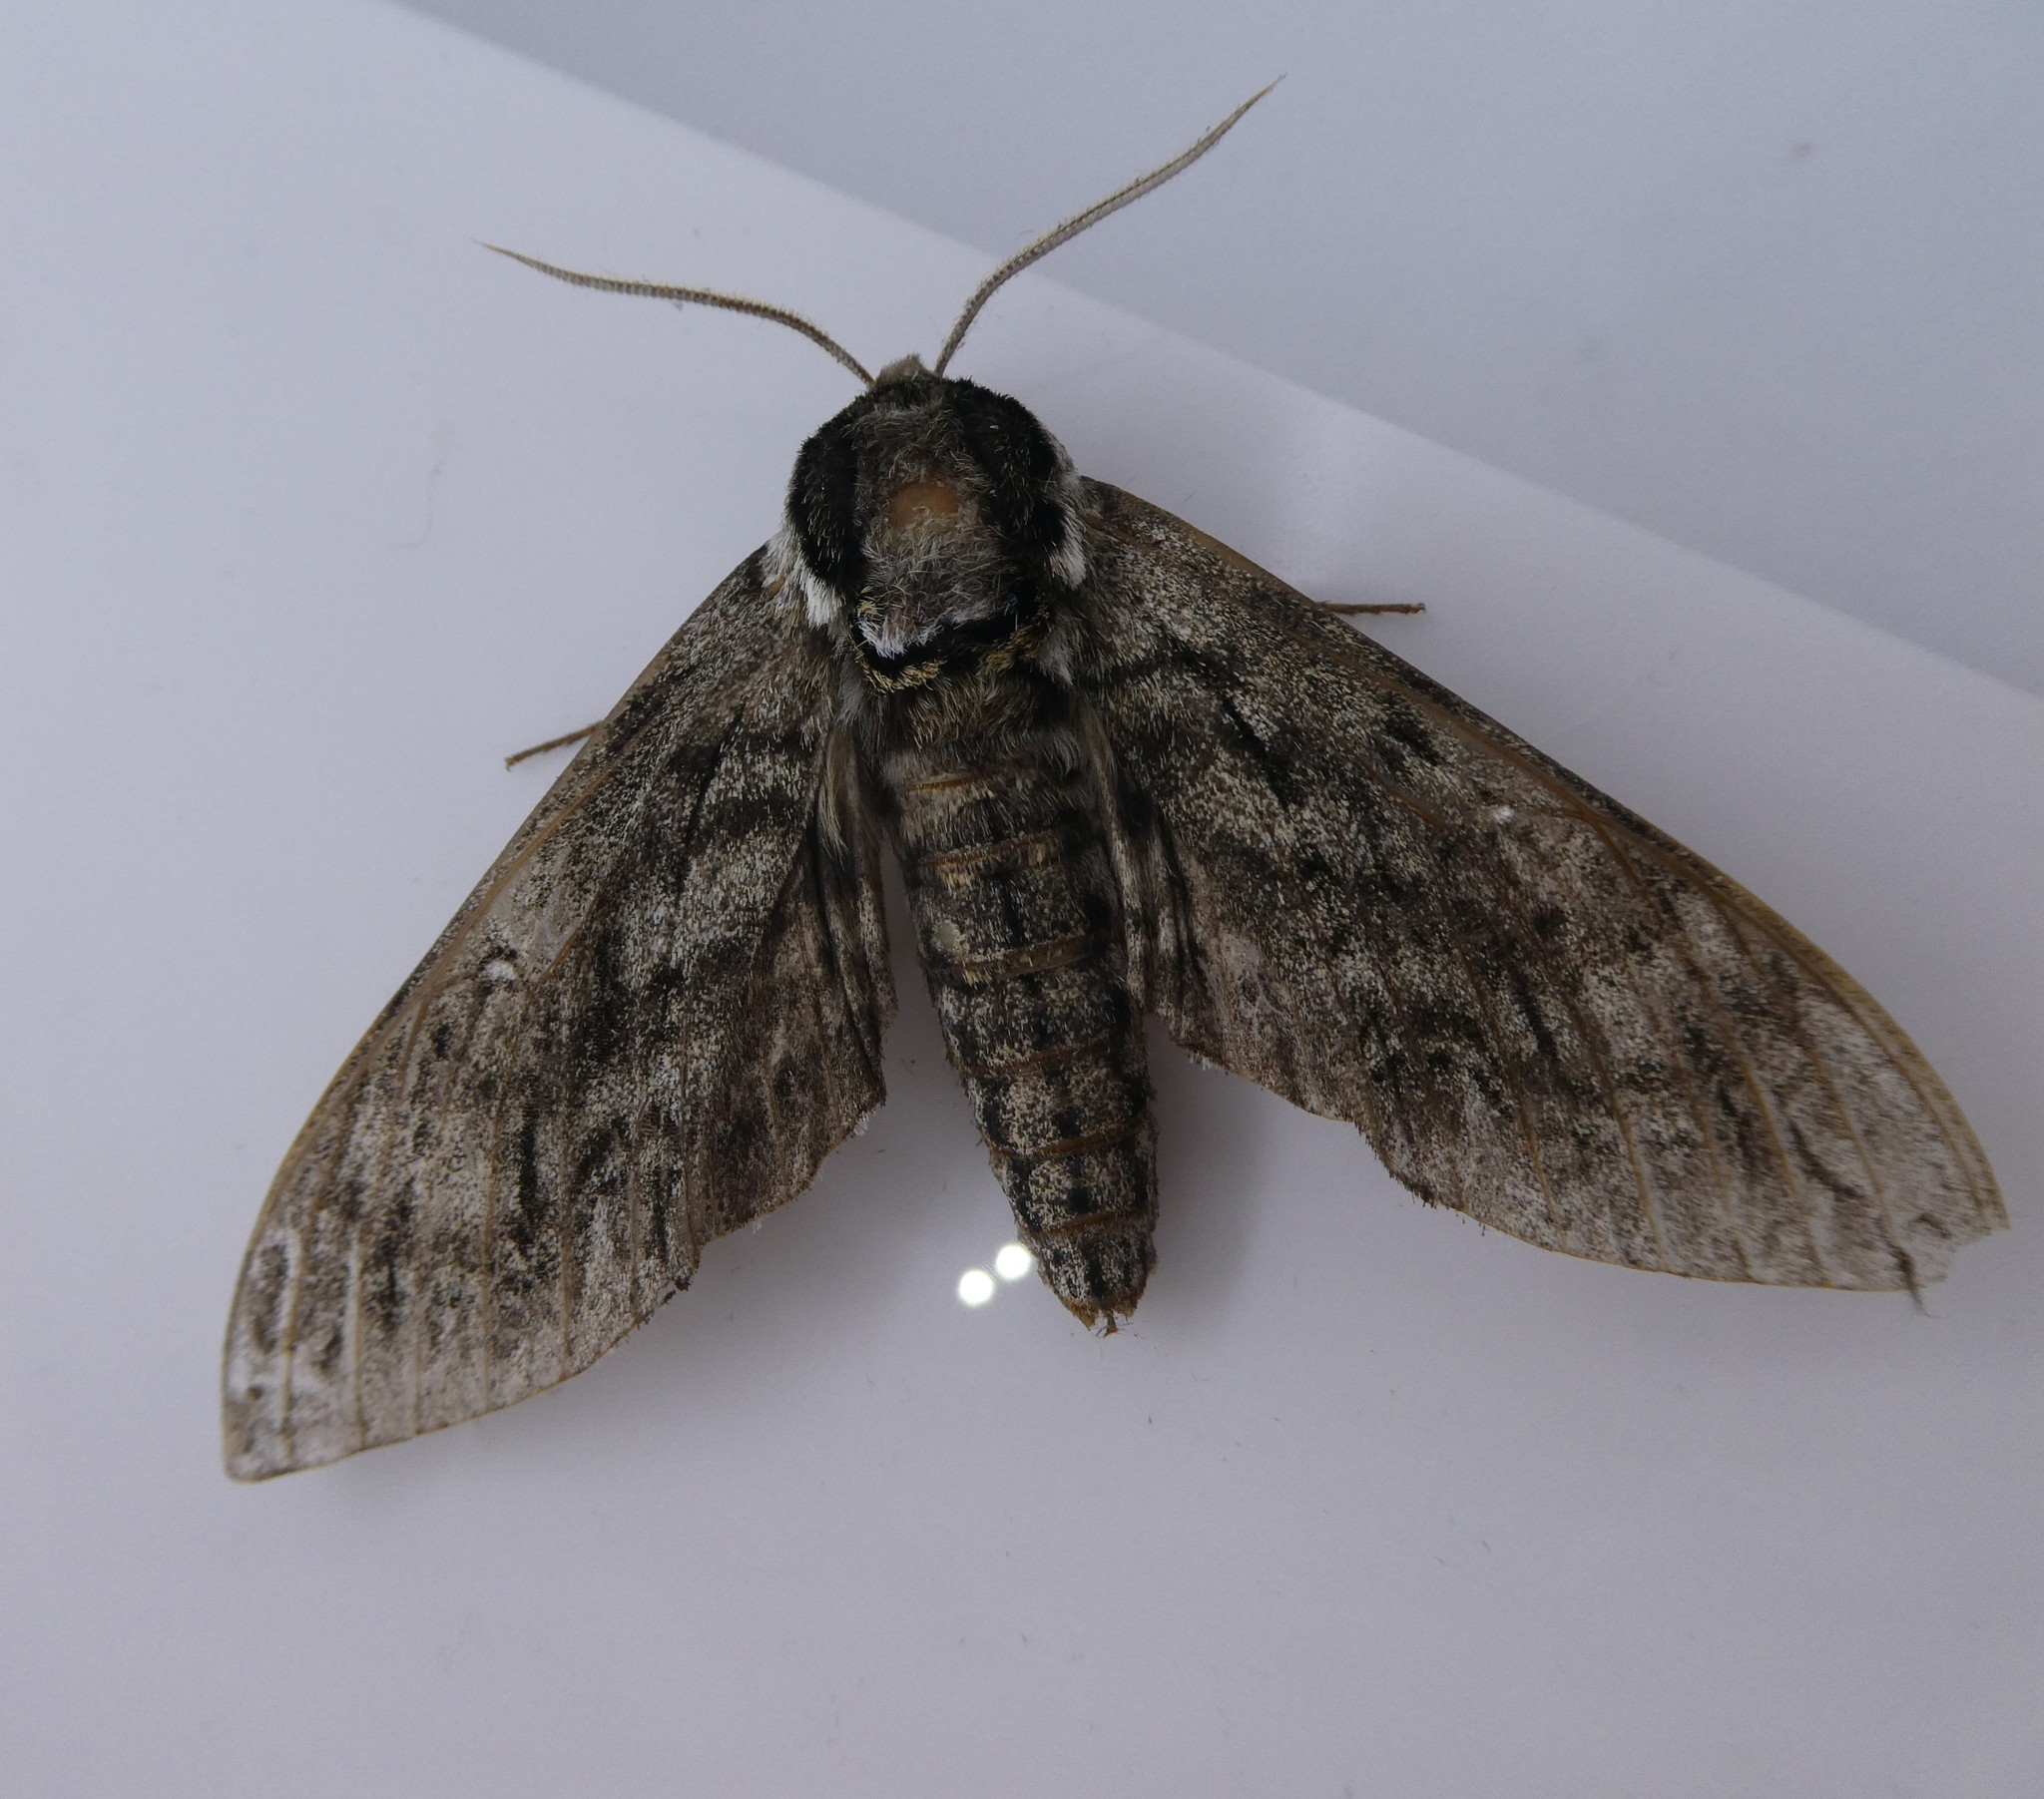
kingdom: Animalia
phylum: Arthropoda
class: Insecta
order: Lepidoptera
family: Sphingidae
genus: Ceratomia
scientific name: Ceratomia undulosa
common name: Waved sphinx
